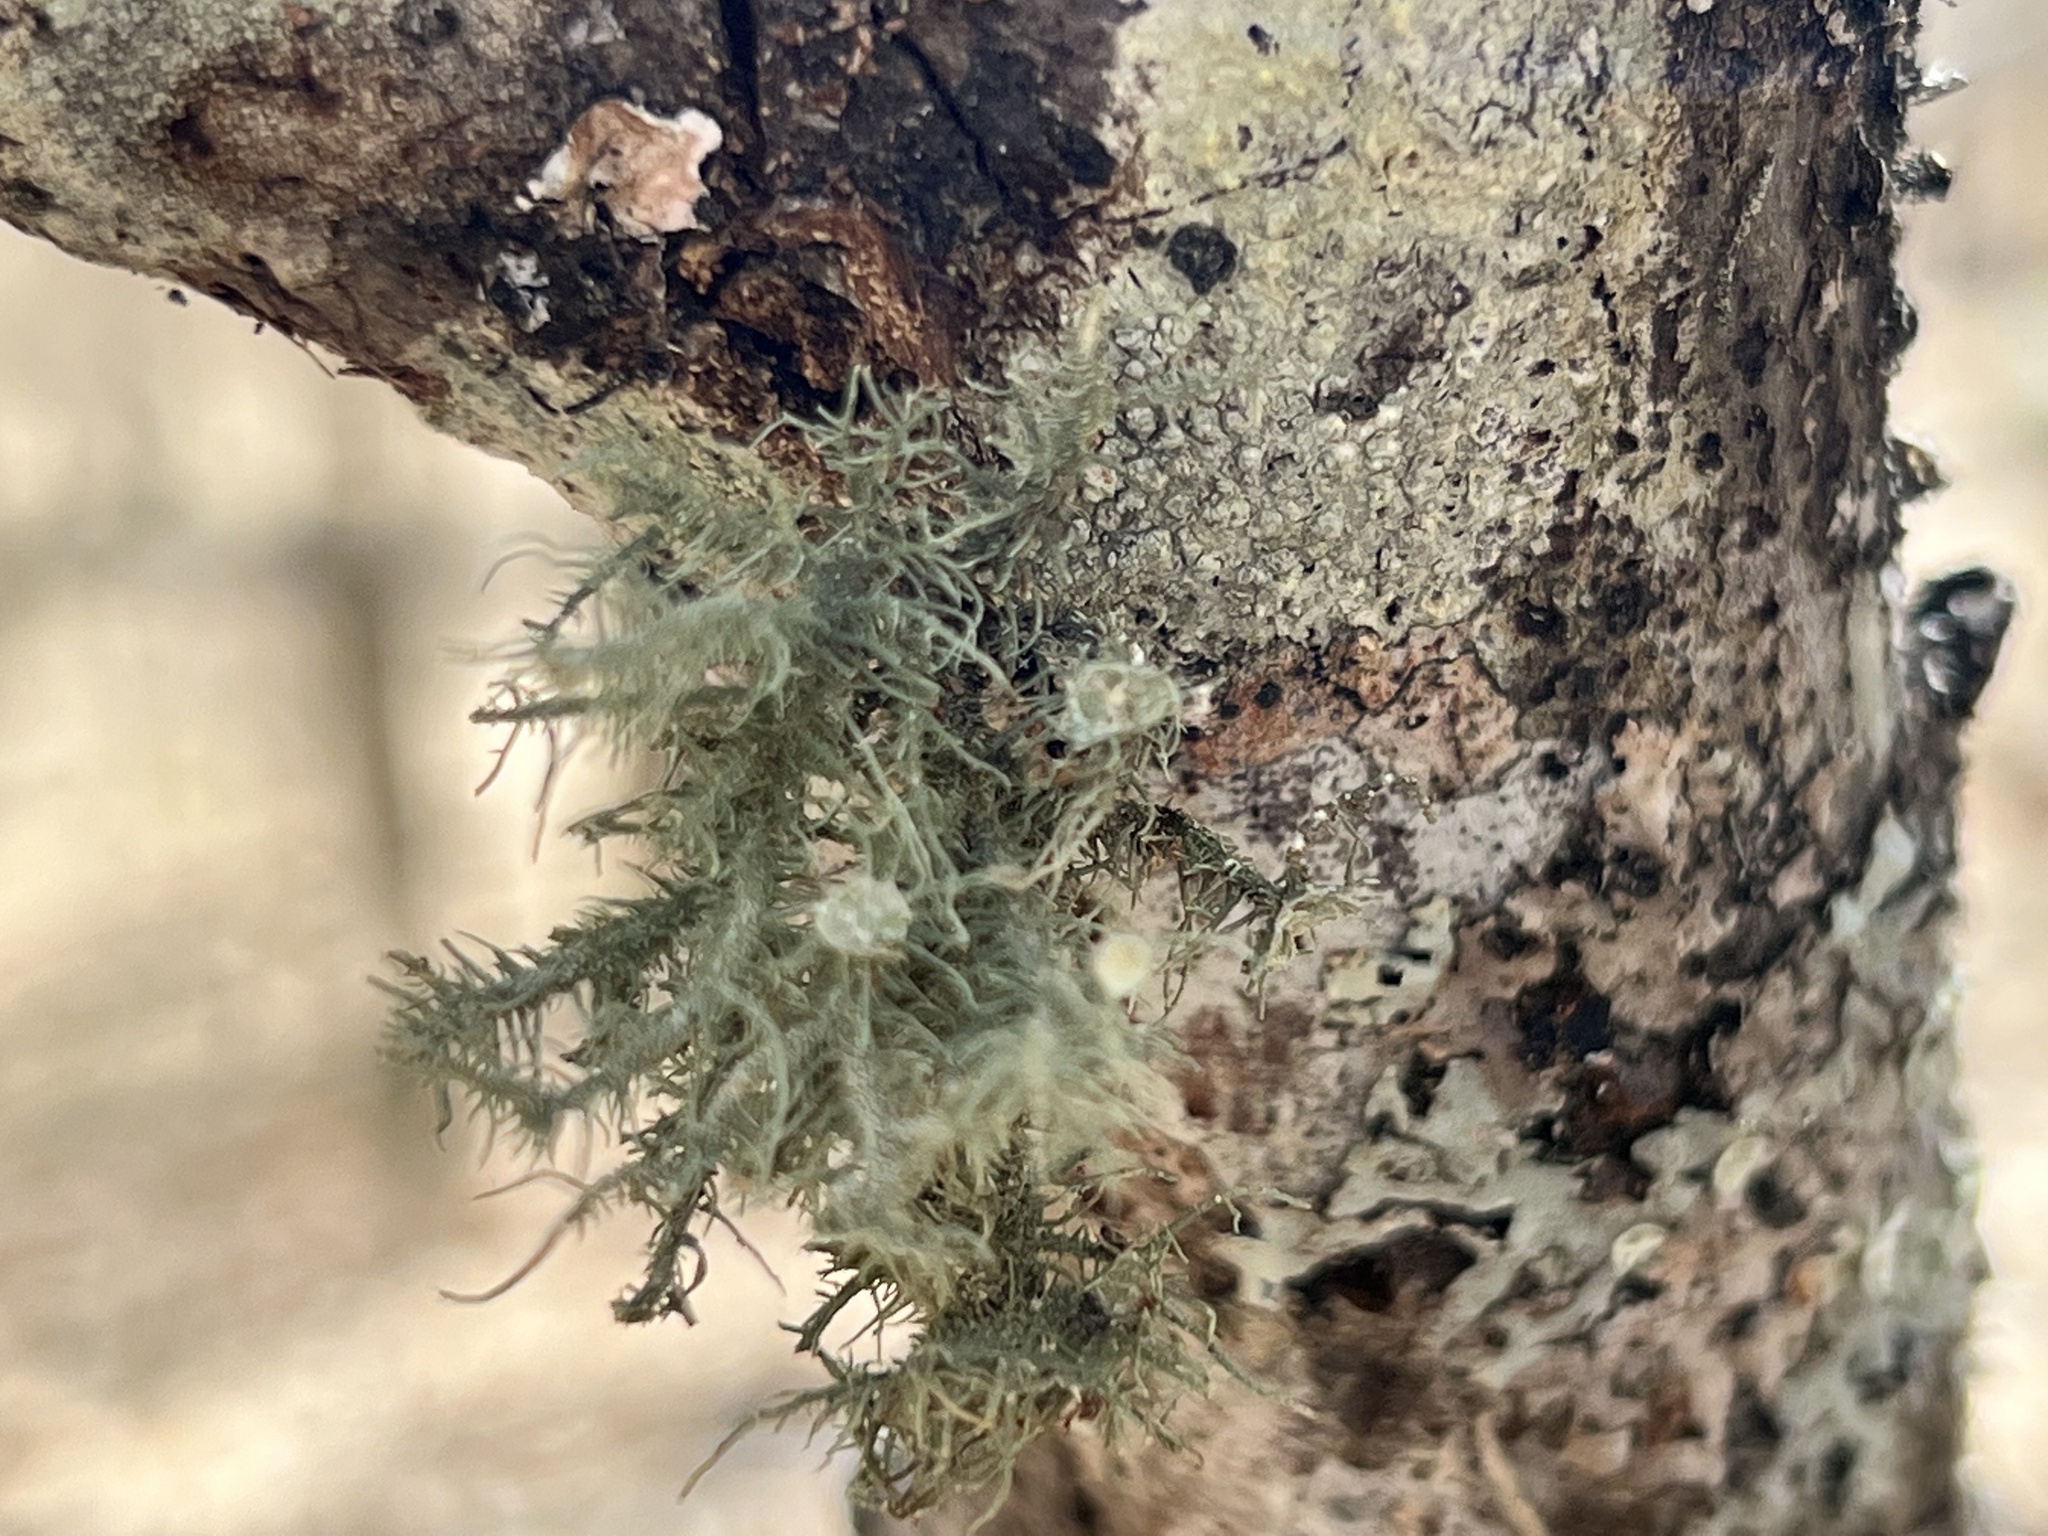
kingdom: Fungi
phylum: Ascomycota
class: Lecanoromycetes
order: Lecanorales
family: Parmeliaceae
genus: Usnea
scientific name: Usnea strigosa
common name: Bushy beard lichen
